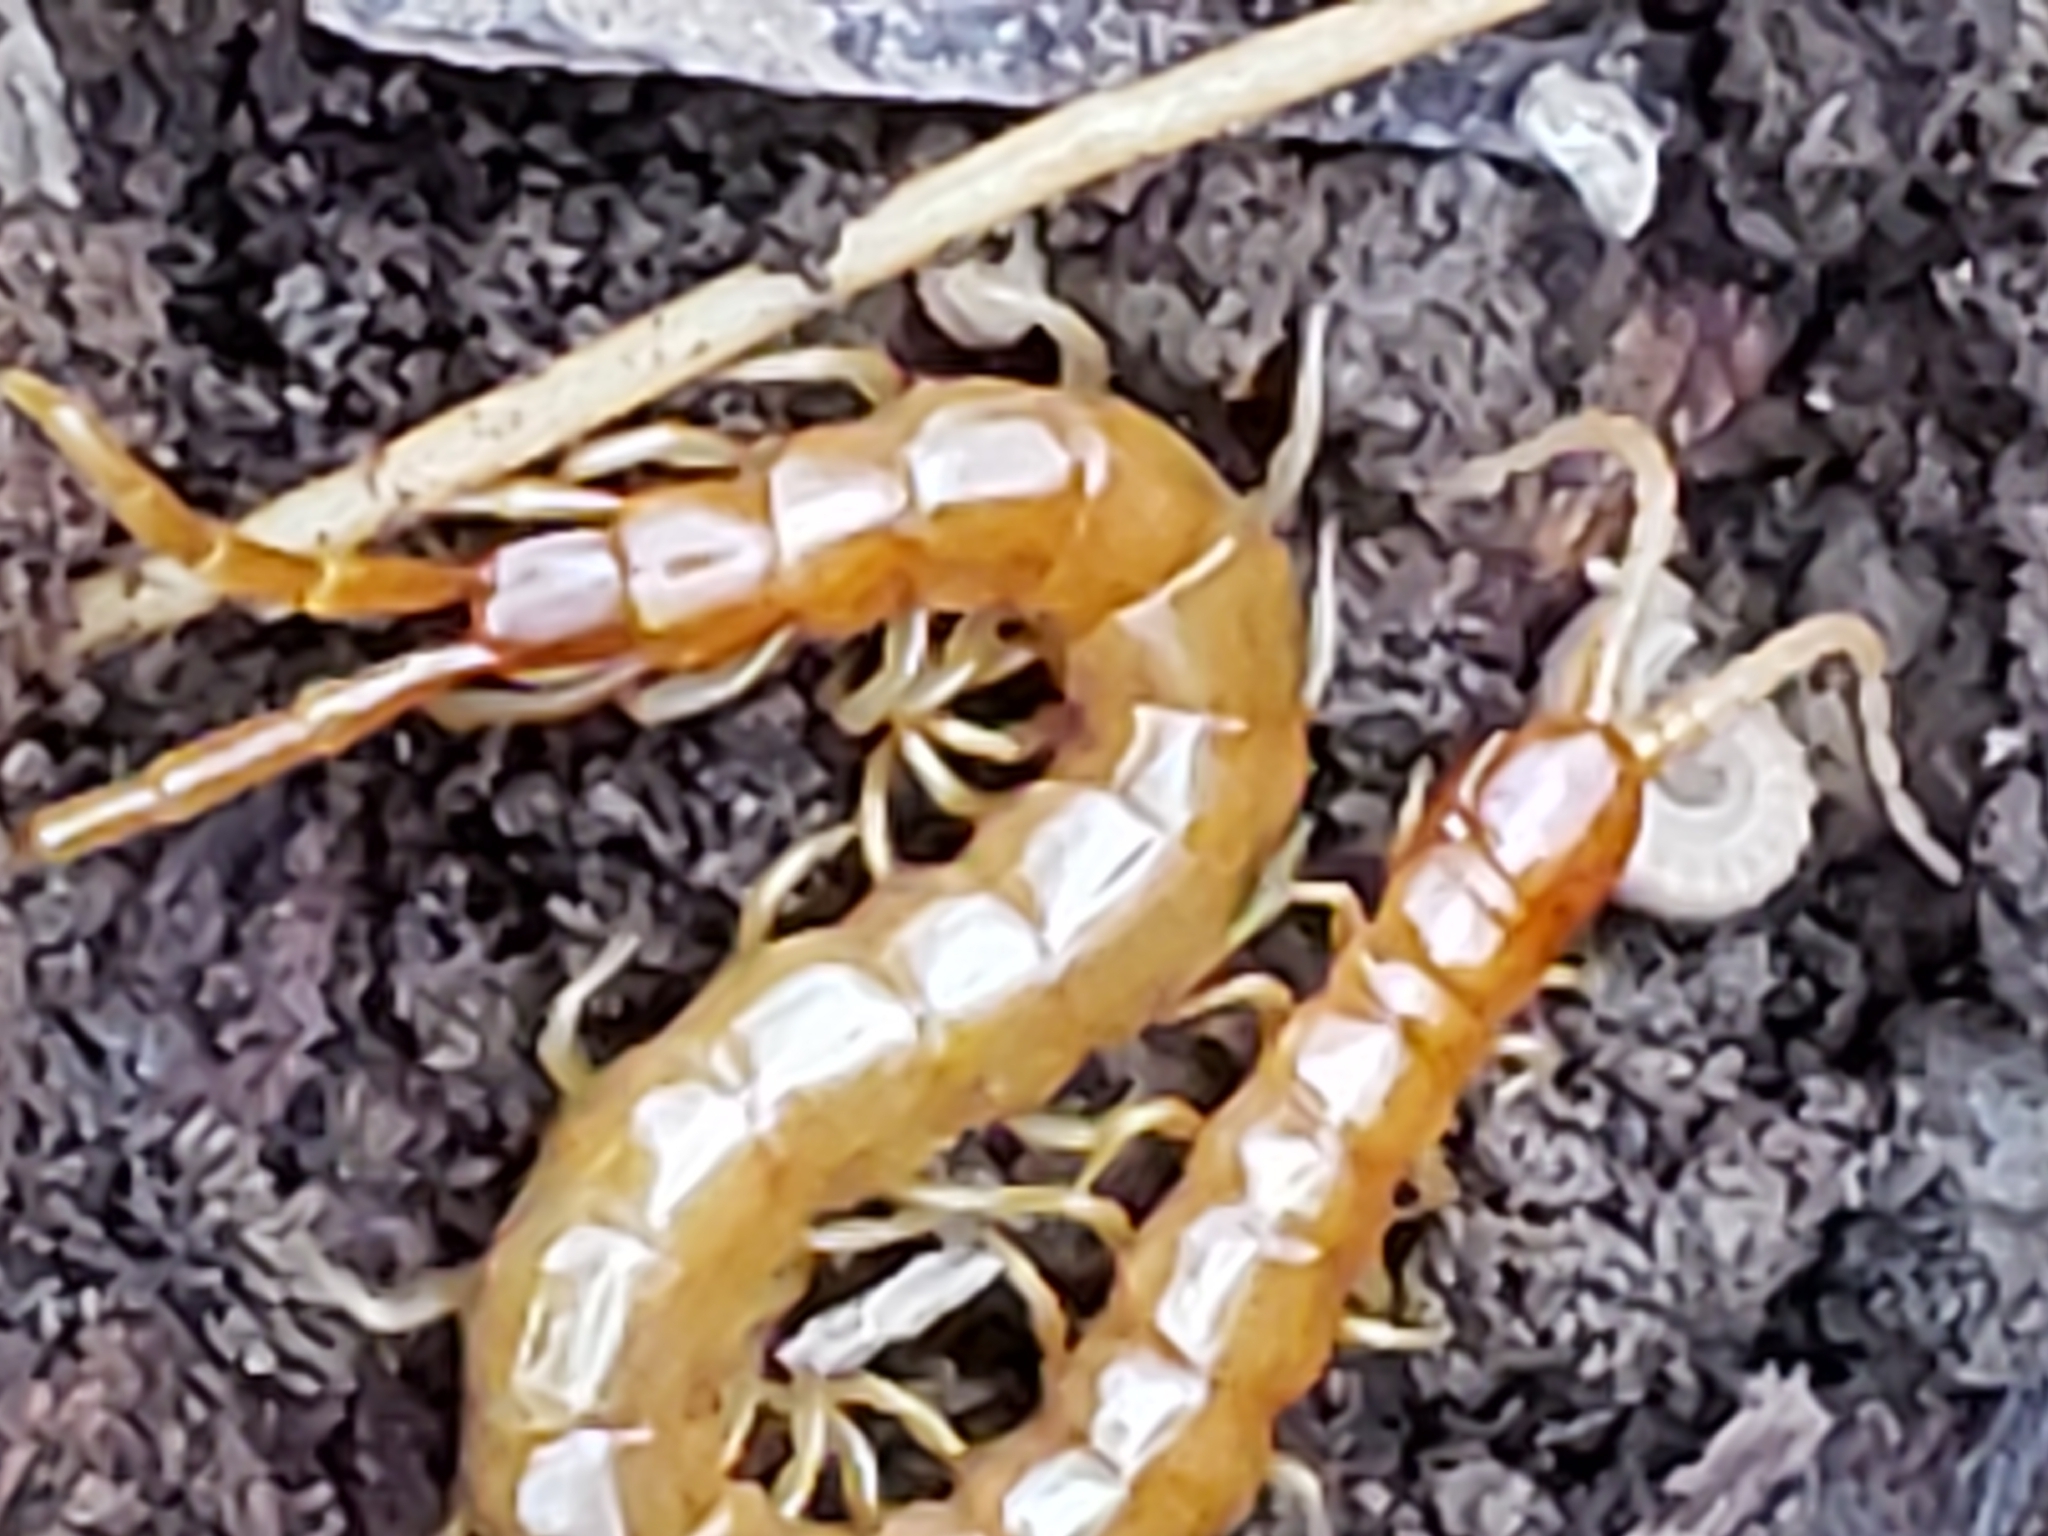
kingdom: Animalia
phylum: Arthropoda
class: Chilopoda
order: Scolopendromorpha
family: Scolopocryptopidae
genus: Scolopocryptops
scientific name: Scolopocryptops peregrinator
